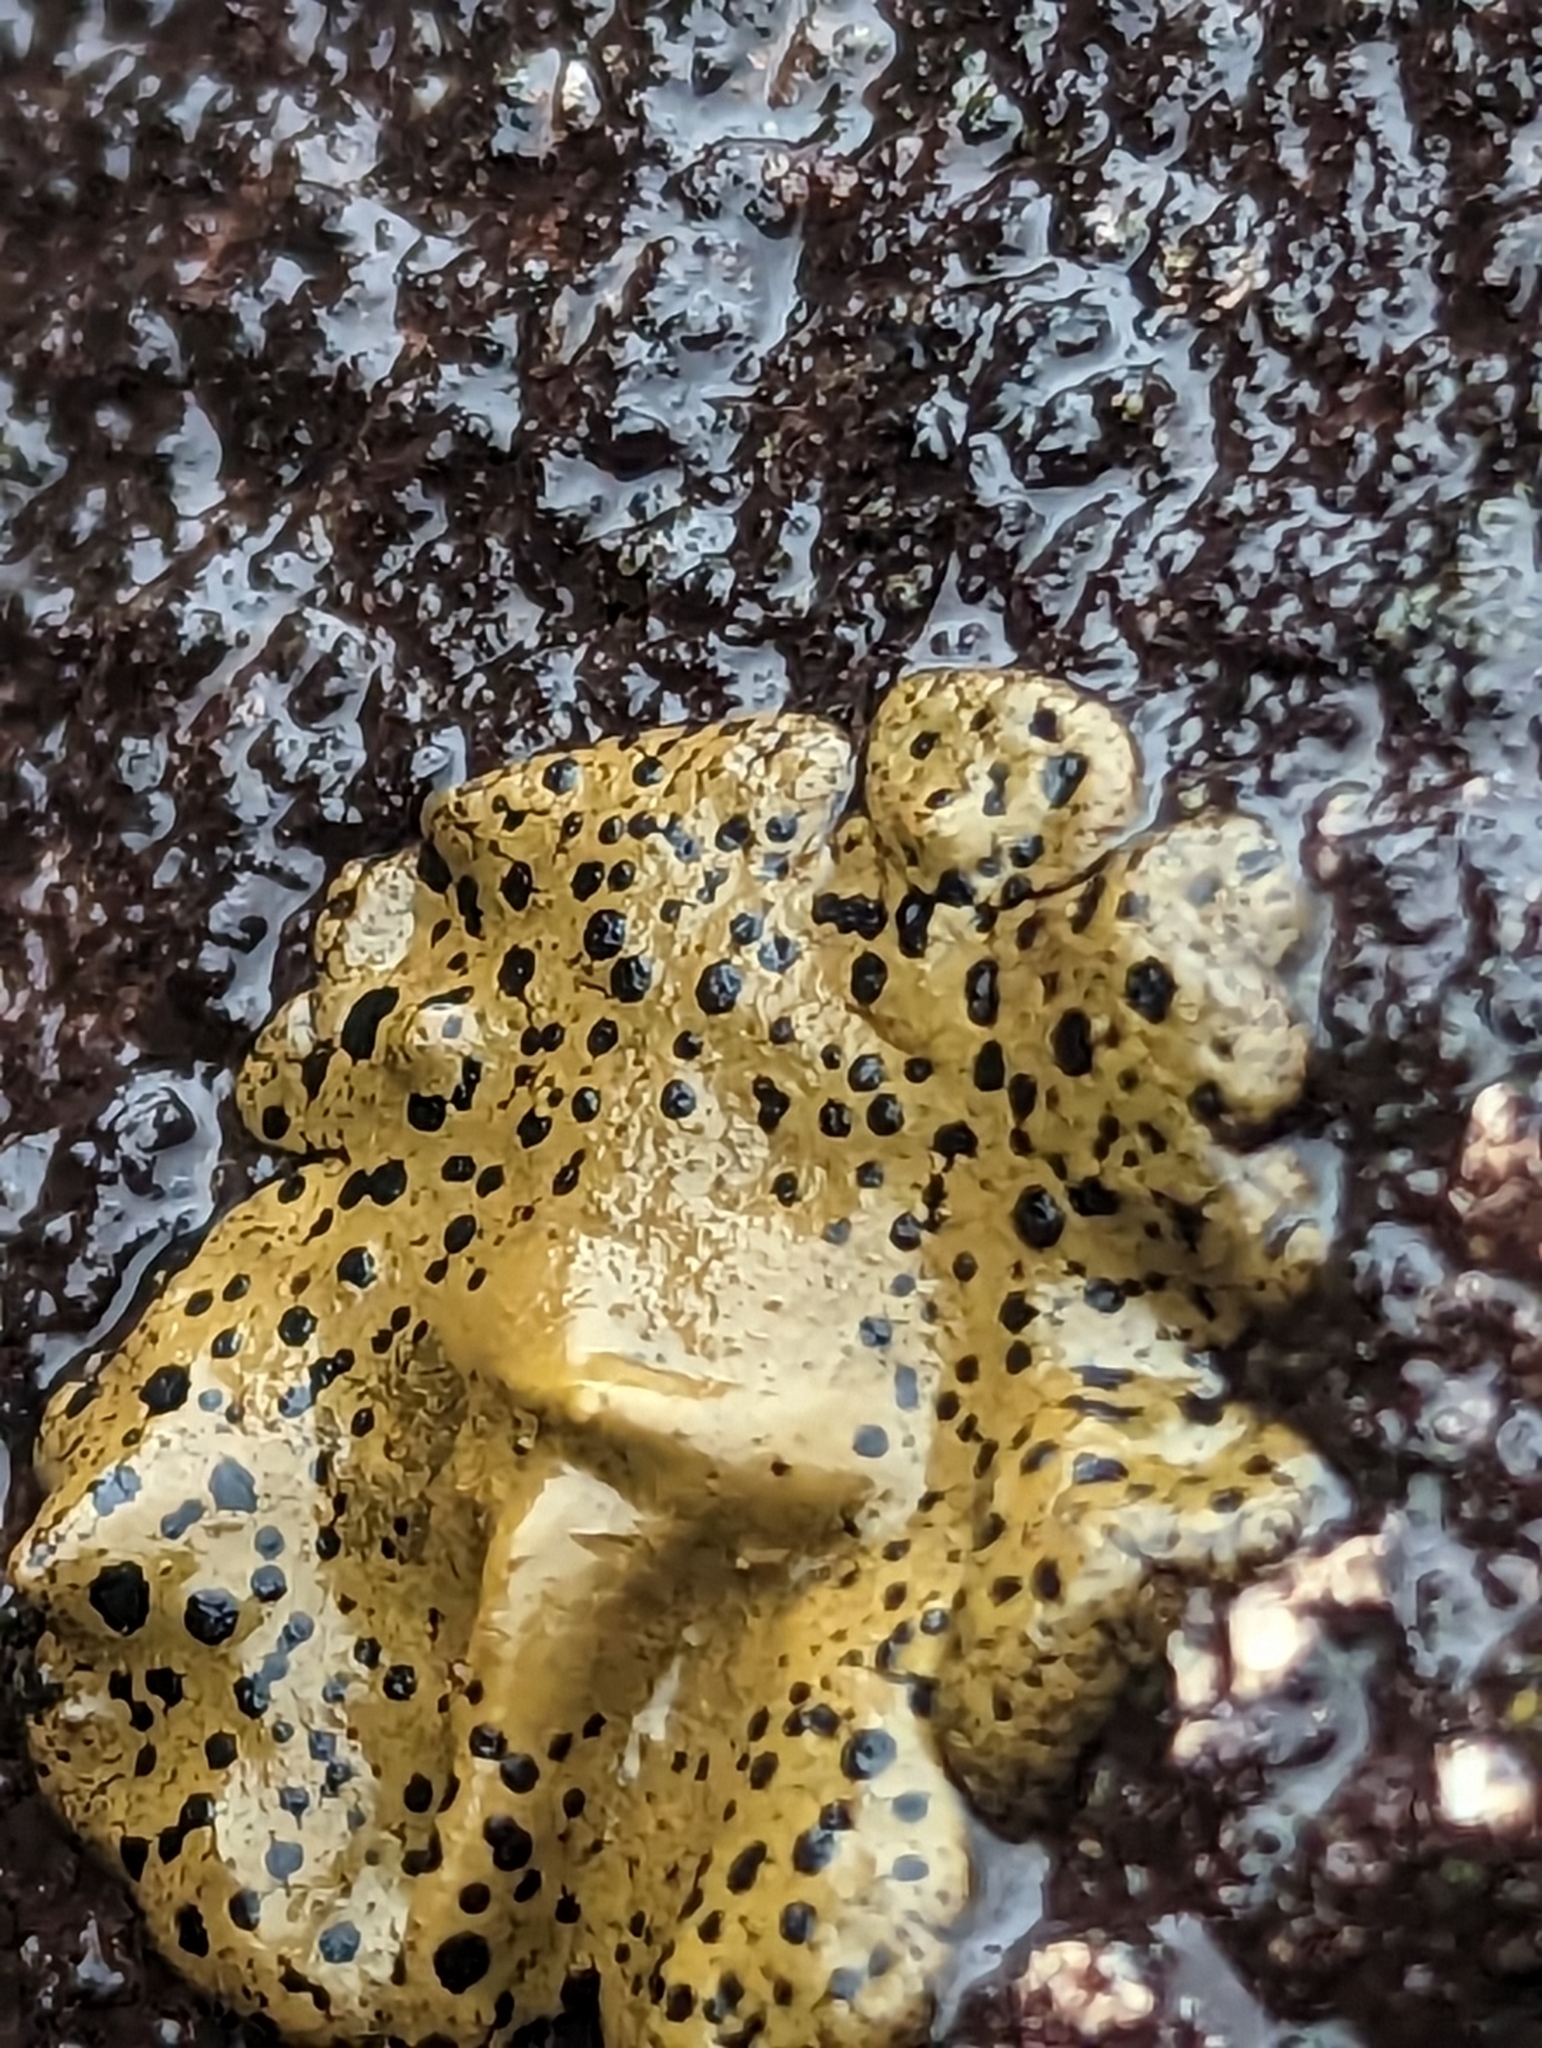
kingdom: Fungi
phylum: Ascomycota
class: Lecanoromycetes
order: Umbilicariales
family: Umbilicariaceae
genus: Umbilicaria
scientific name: Umbilicaria phaea
